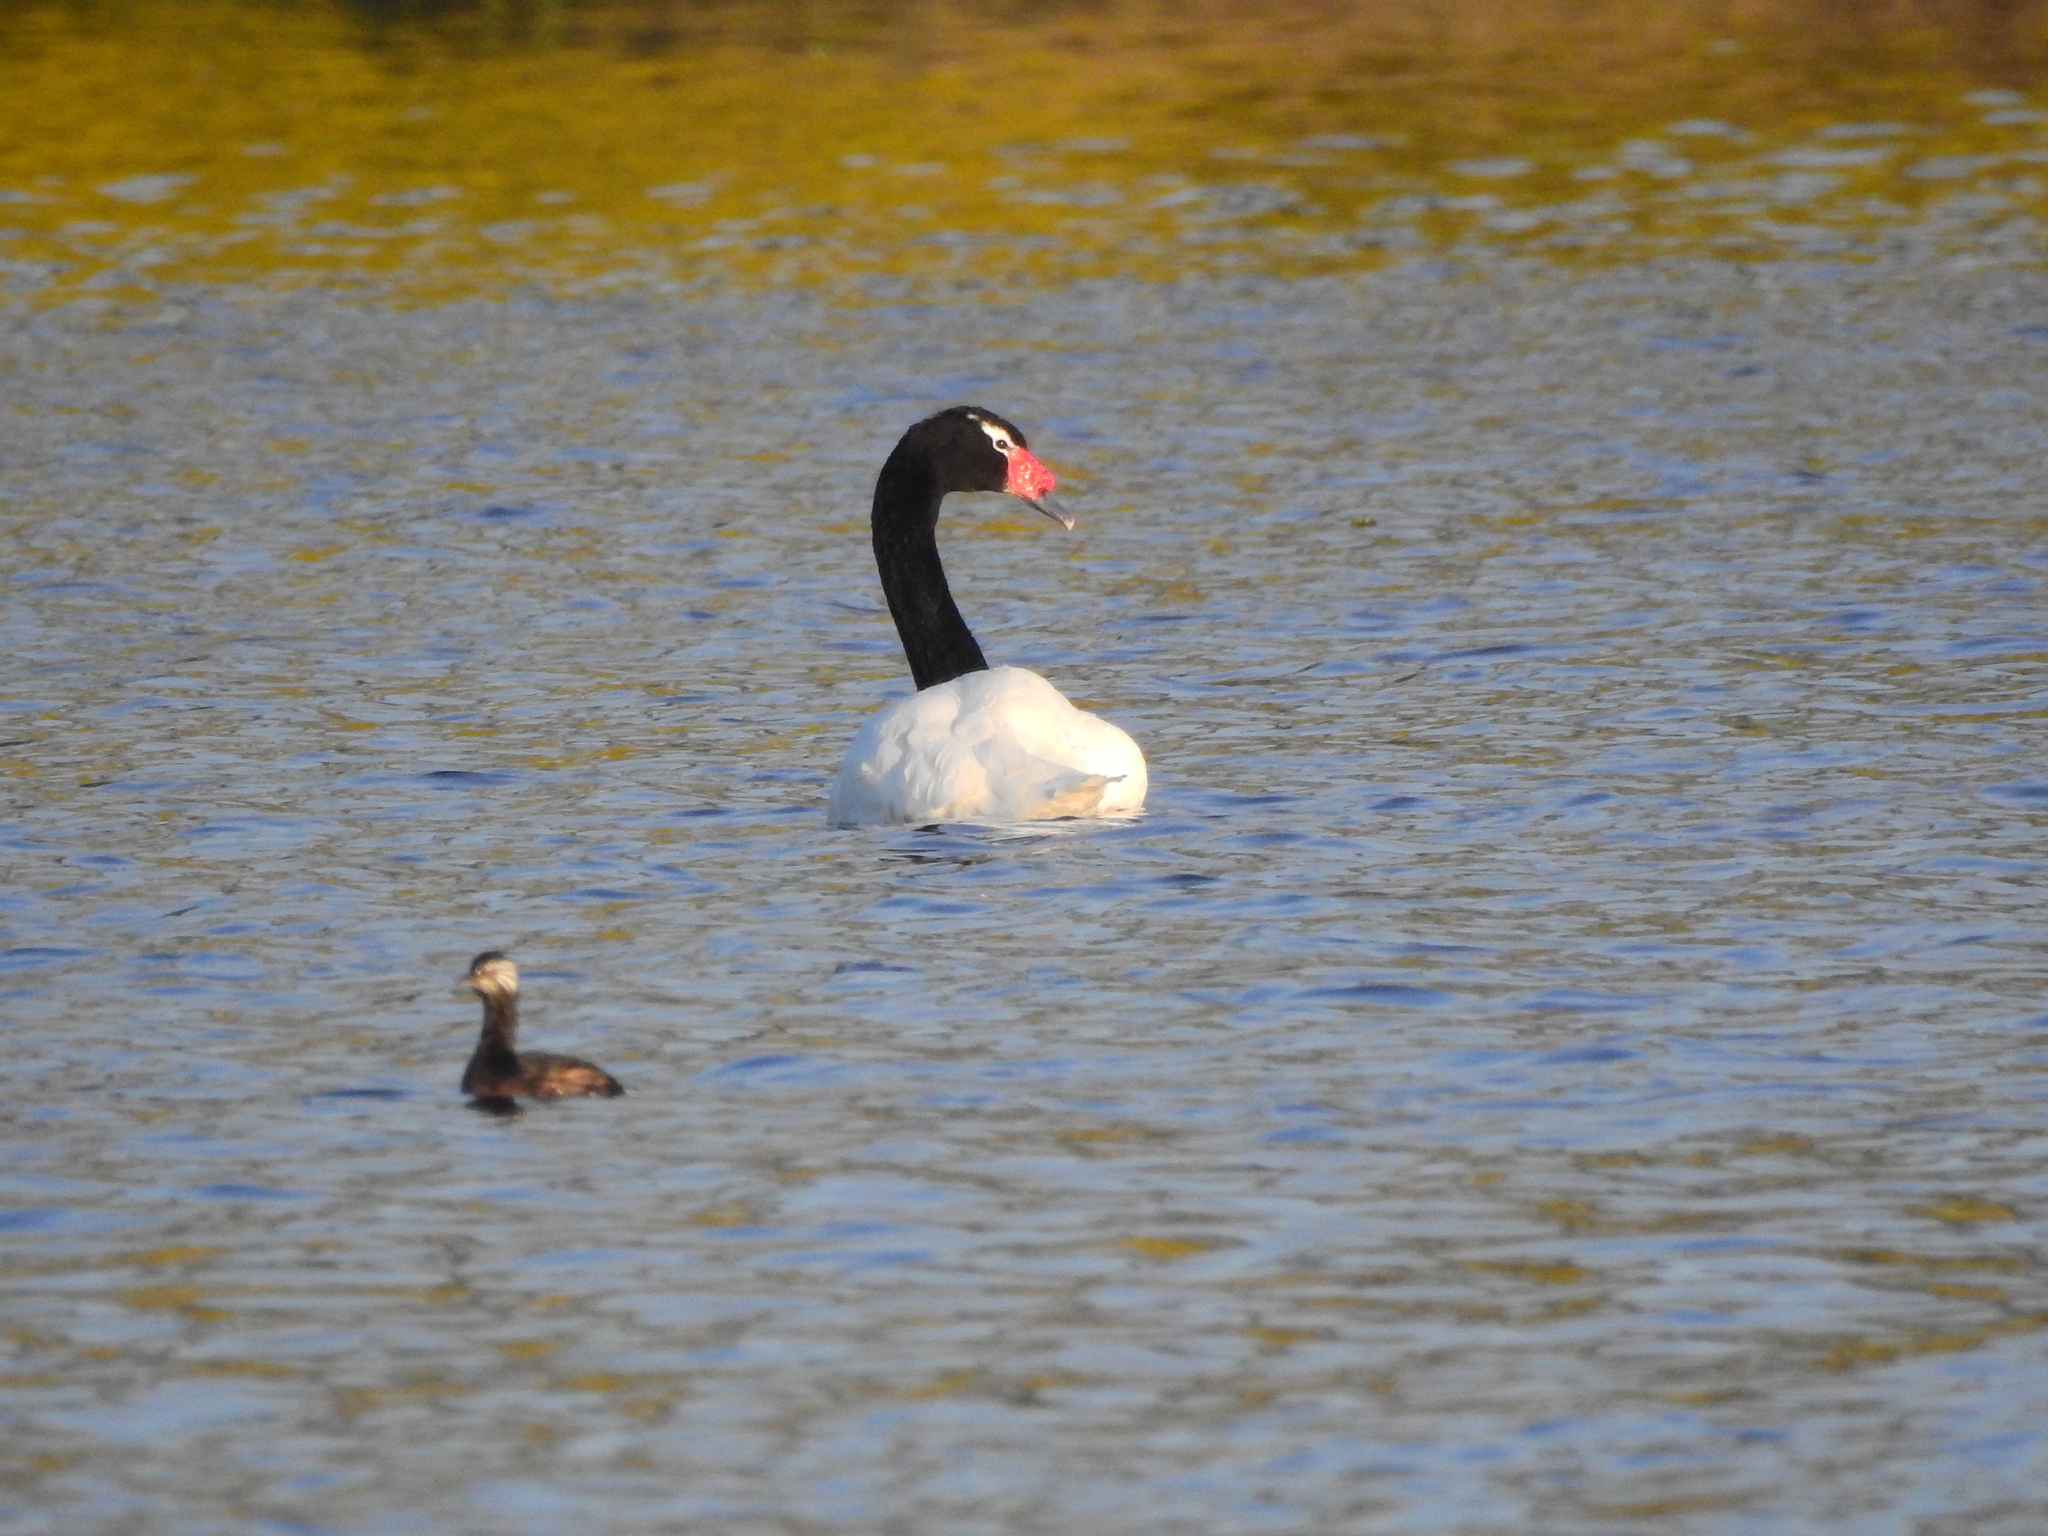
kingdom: Animalia
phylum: Chordata
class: Aves
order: Anseriformes
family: Anatidae
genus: Cygnus
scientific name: Cygnus melancoryphus
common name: Black-necked swan
